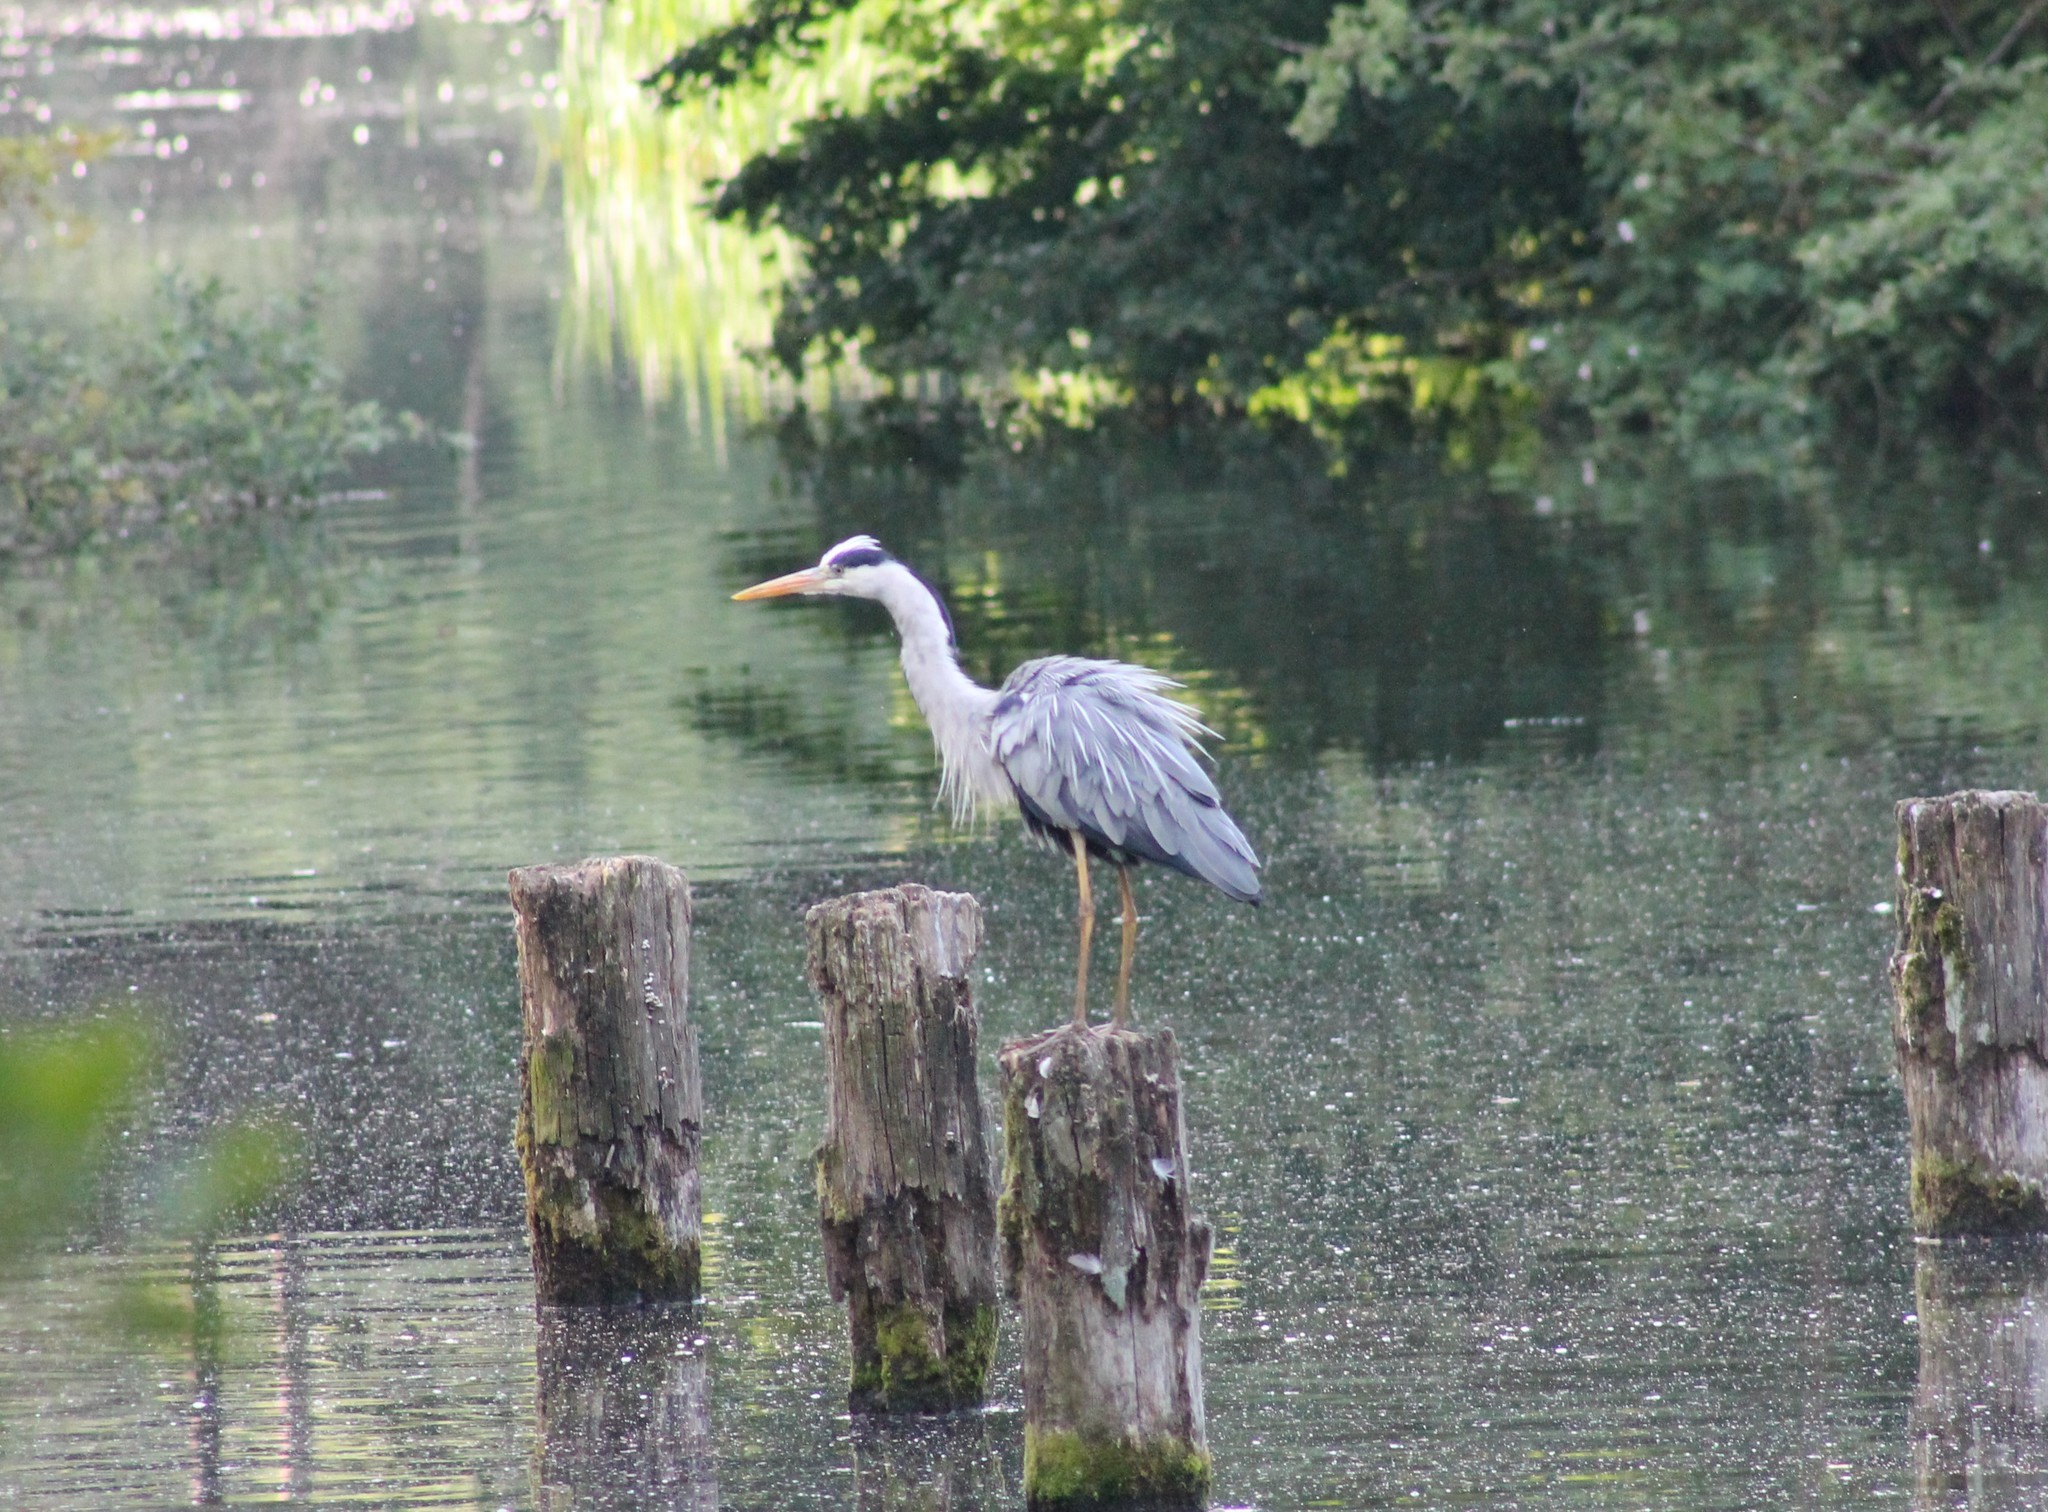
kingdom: Animalia
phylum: Chordata
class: Aves
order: Pelecaniformes
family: Ardeidae
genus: Ardea
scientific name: Ardea cinerea
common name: Grey heron
